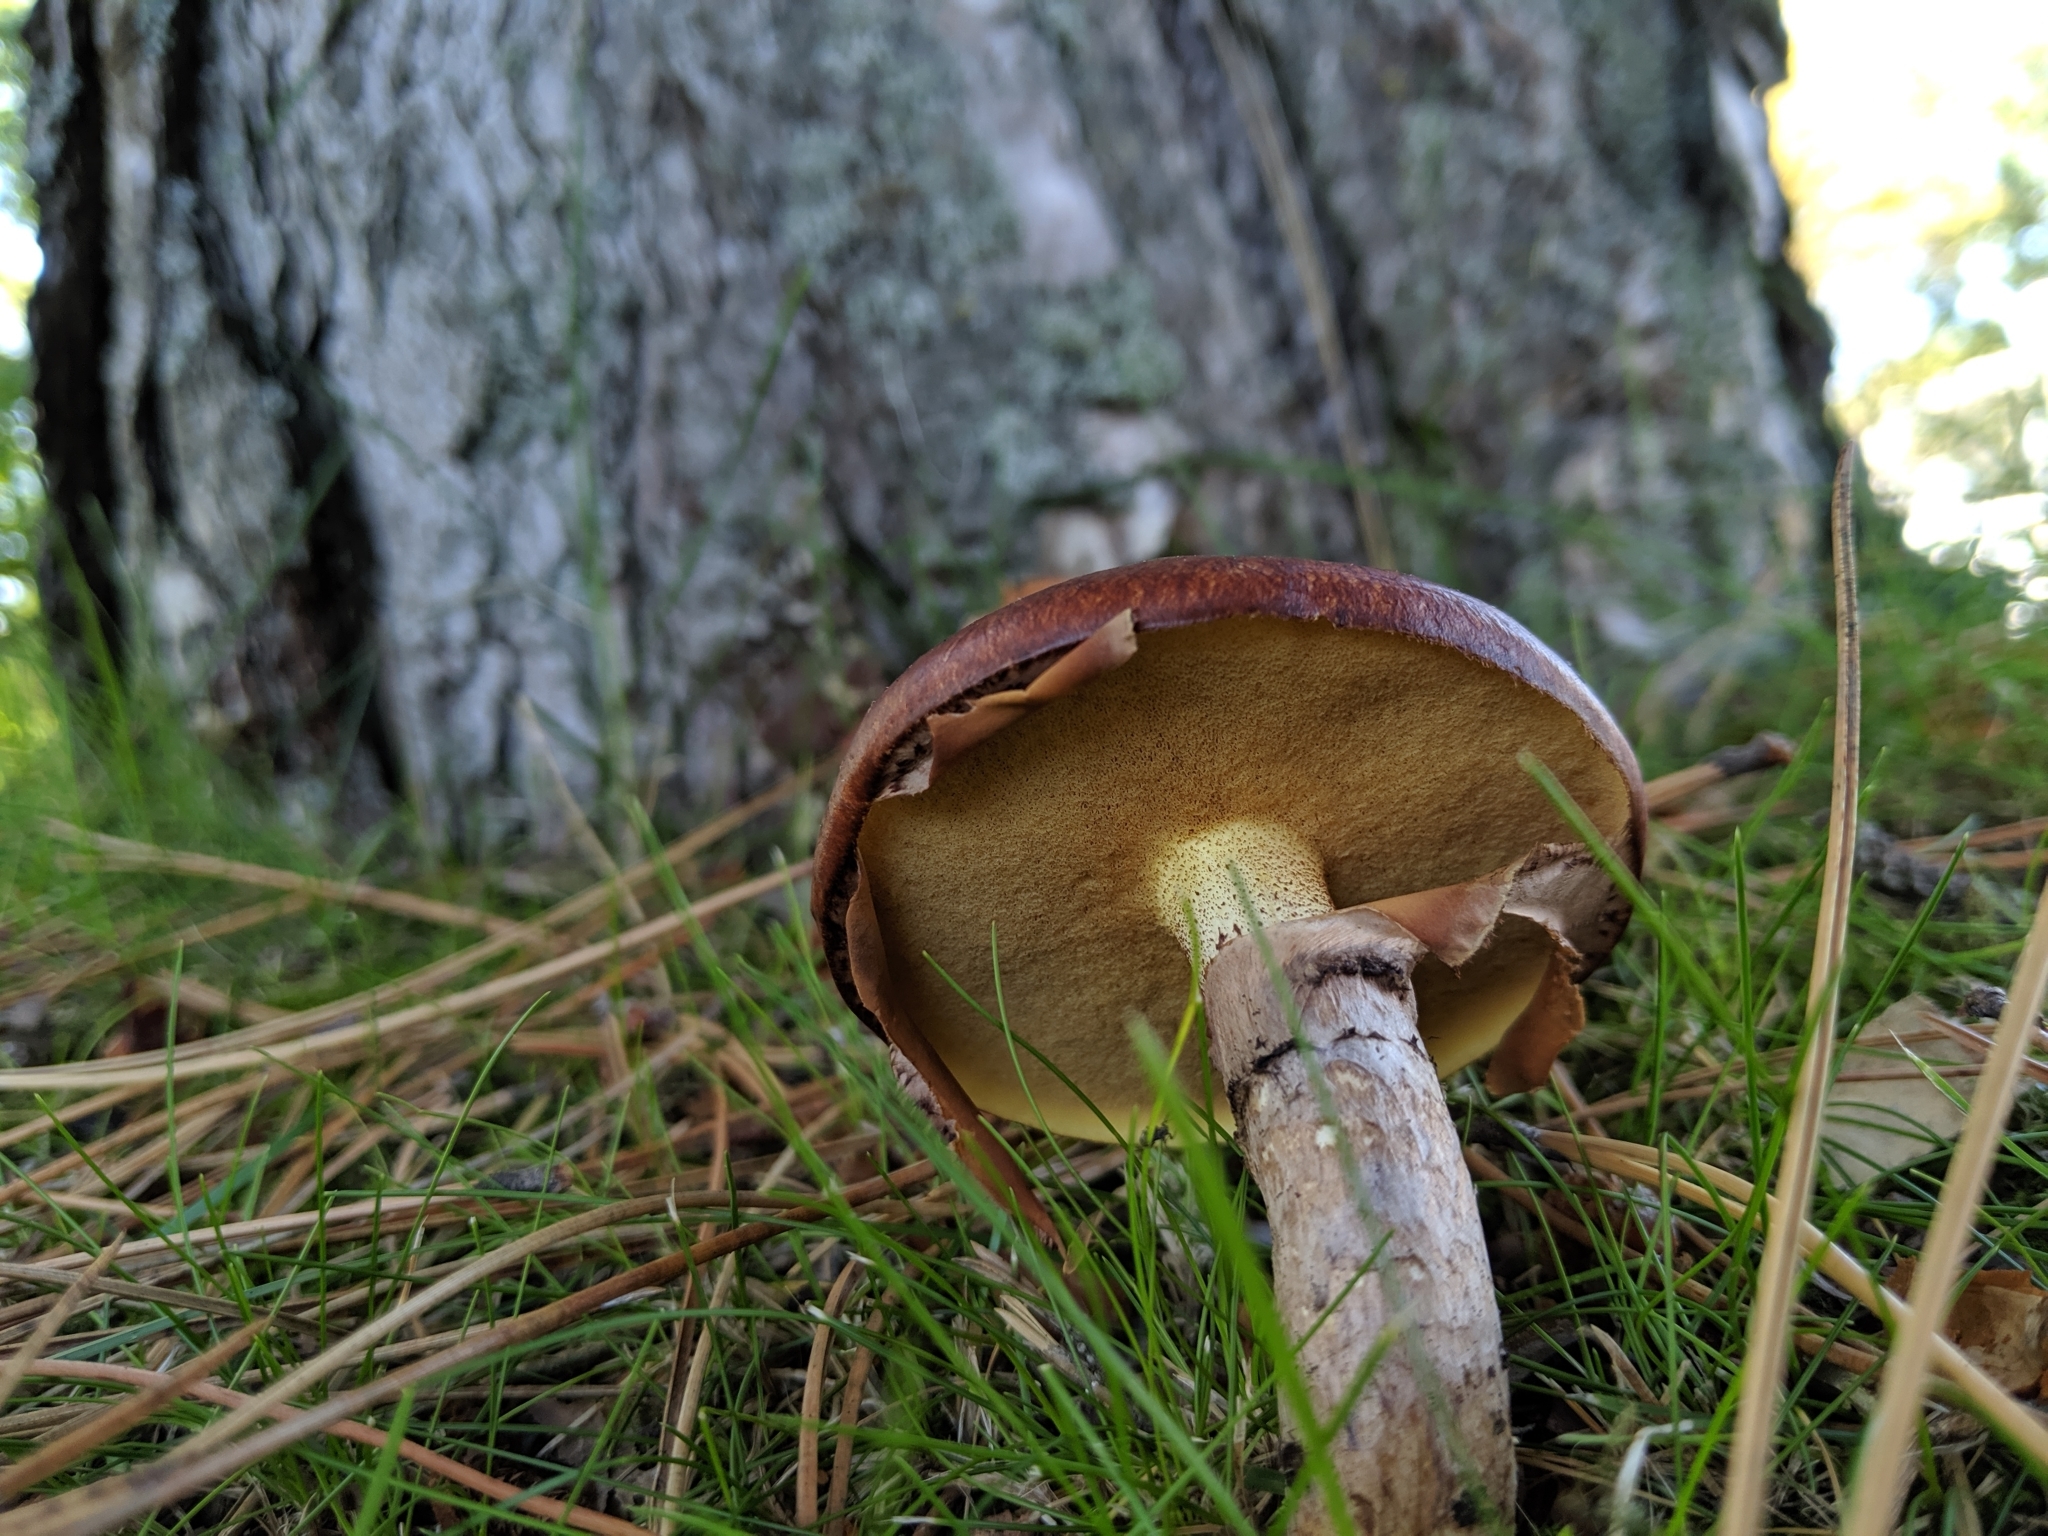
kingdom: Fungi
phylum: Basidiomycota
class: Agaricomycetes
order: Boletales
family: Suillaceae
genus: Suillus
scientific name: Suillus luteus
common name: Slippery jack
